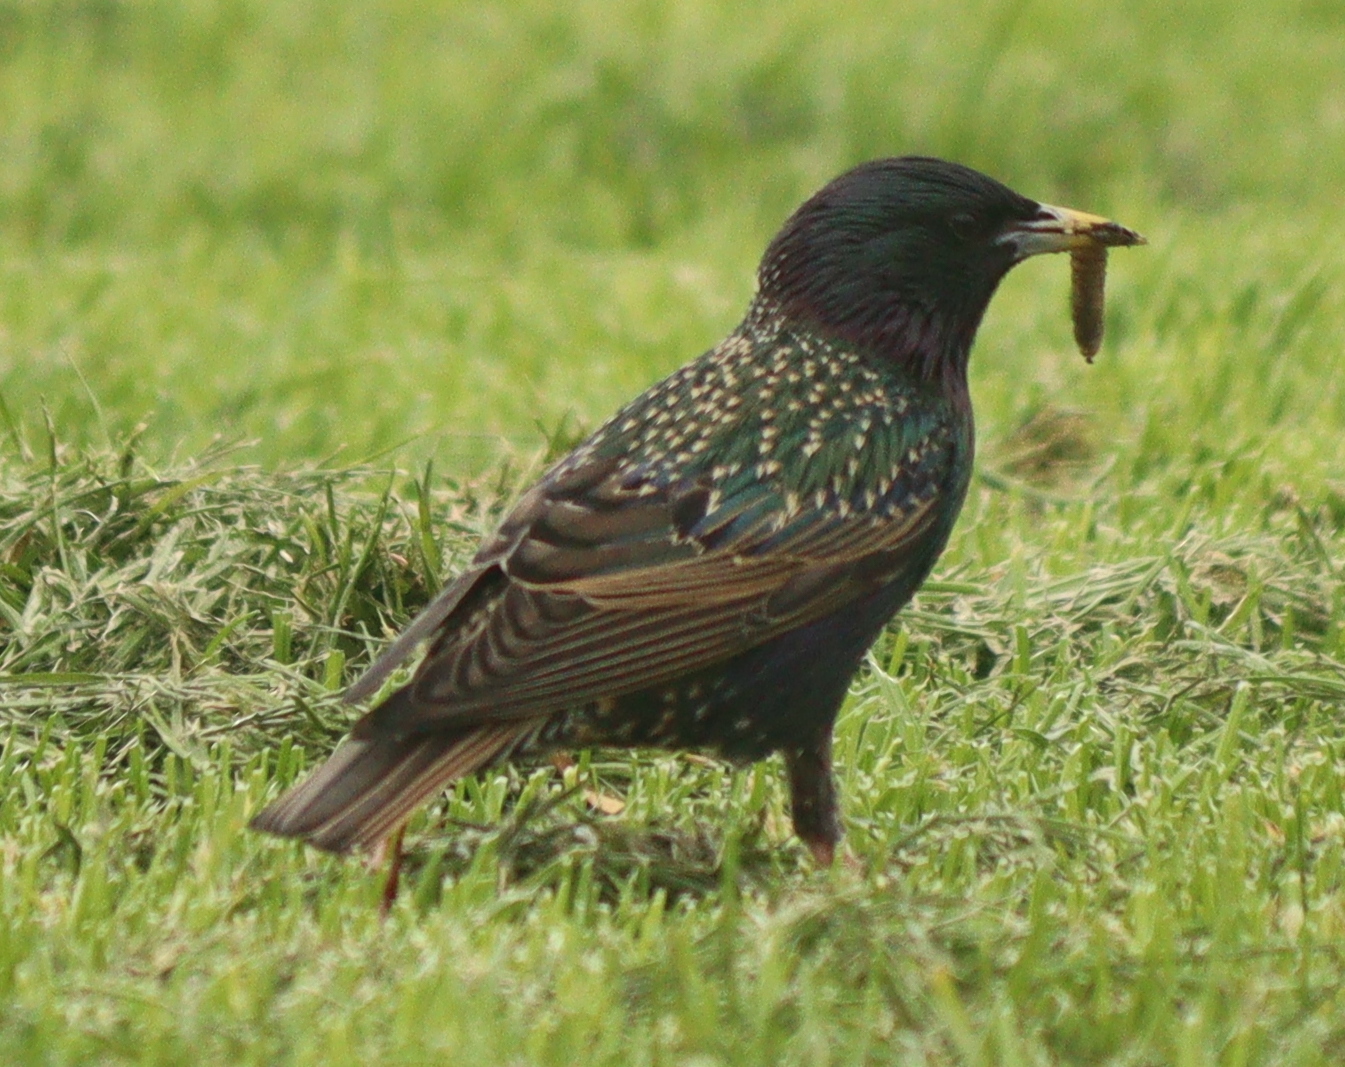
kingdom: Animalia
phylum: Chordata
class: Aves
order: Passeriformes
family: Sturnidae
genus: Sturnus
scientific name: Sturnus vulgaris
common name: Common starling
